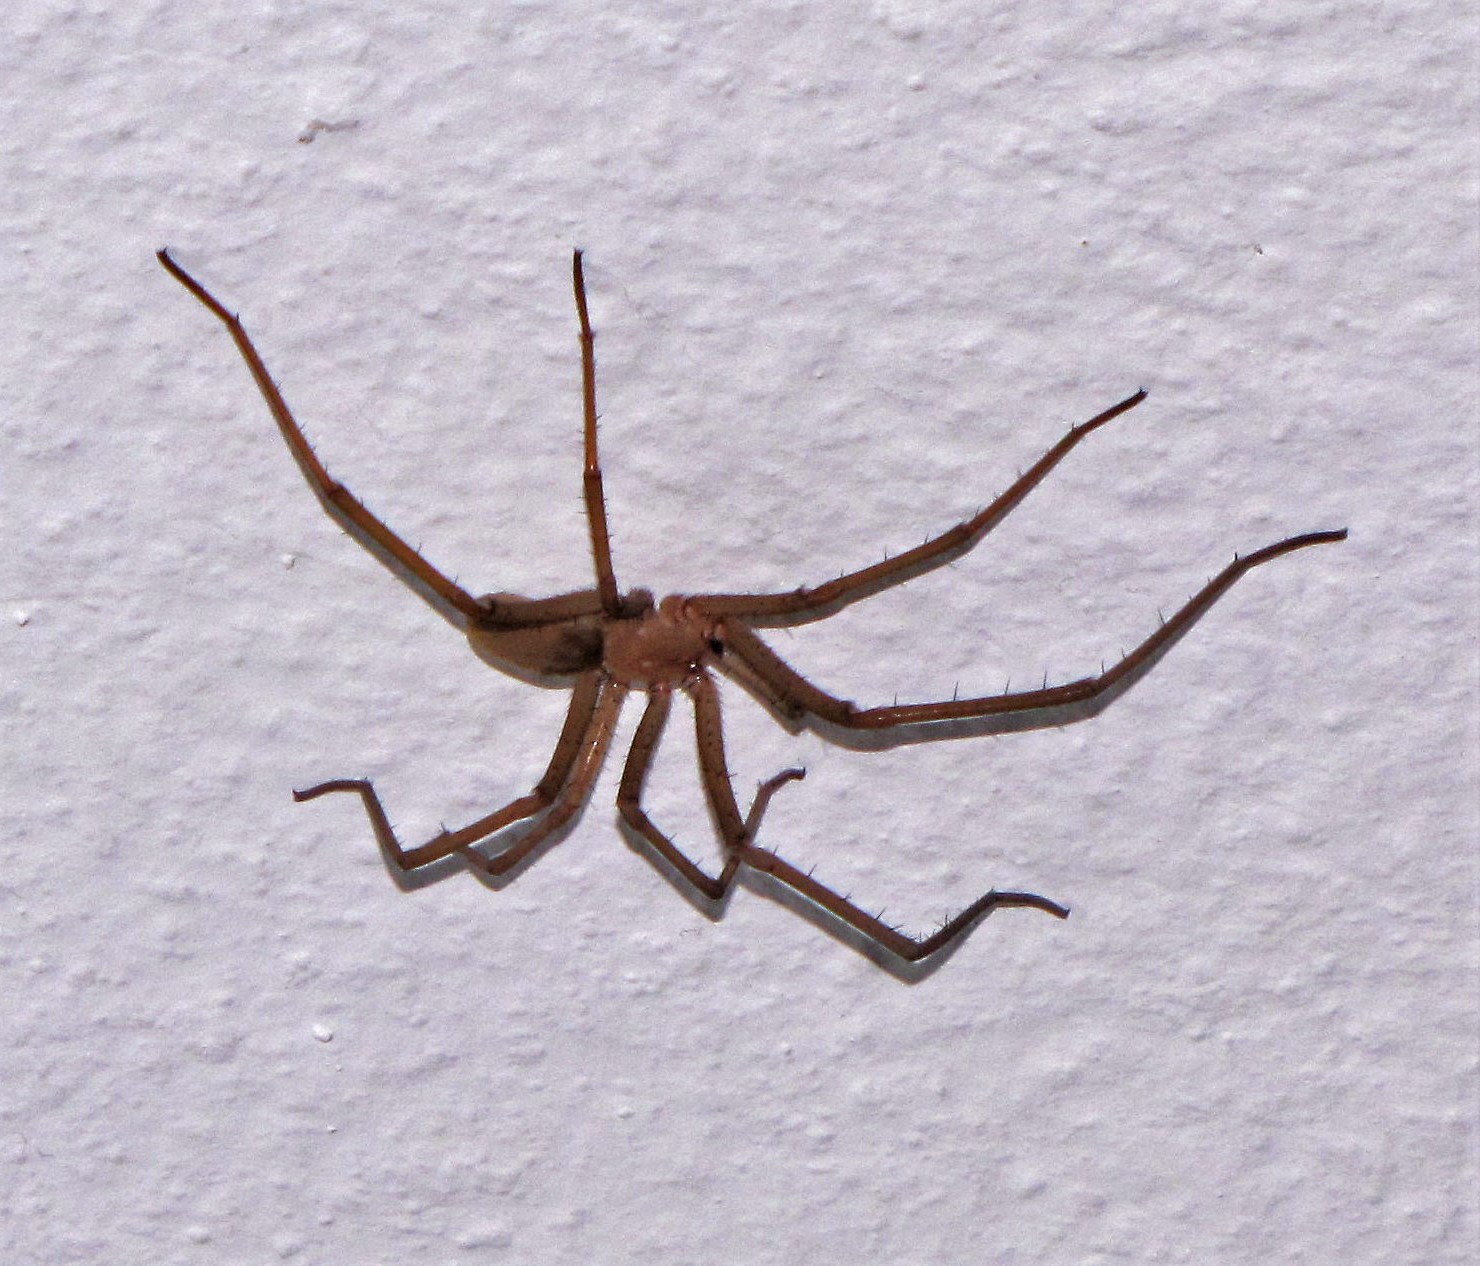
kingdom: Animalia
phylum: Arthropoda
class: Arachnida
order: Araneae
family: Filistatidae
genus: Kukulcania
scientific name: Kukulcania hibernalis
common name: Crevice weaver
